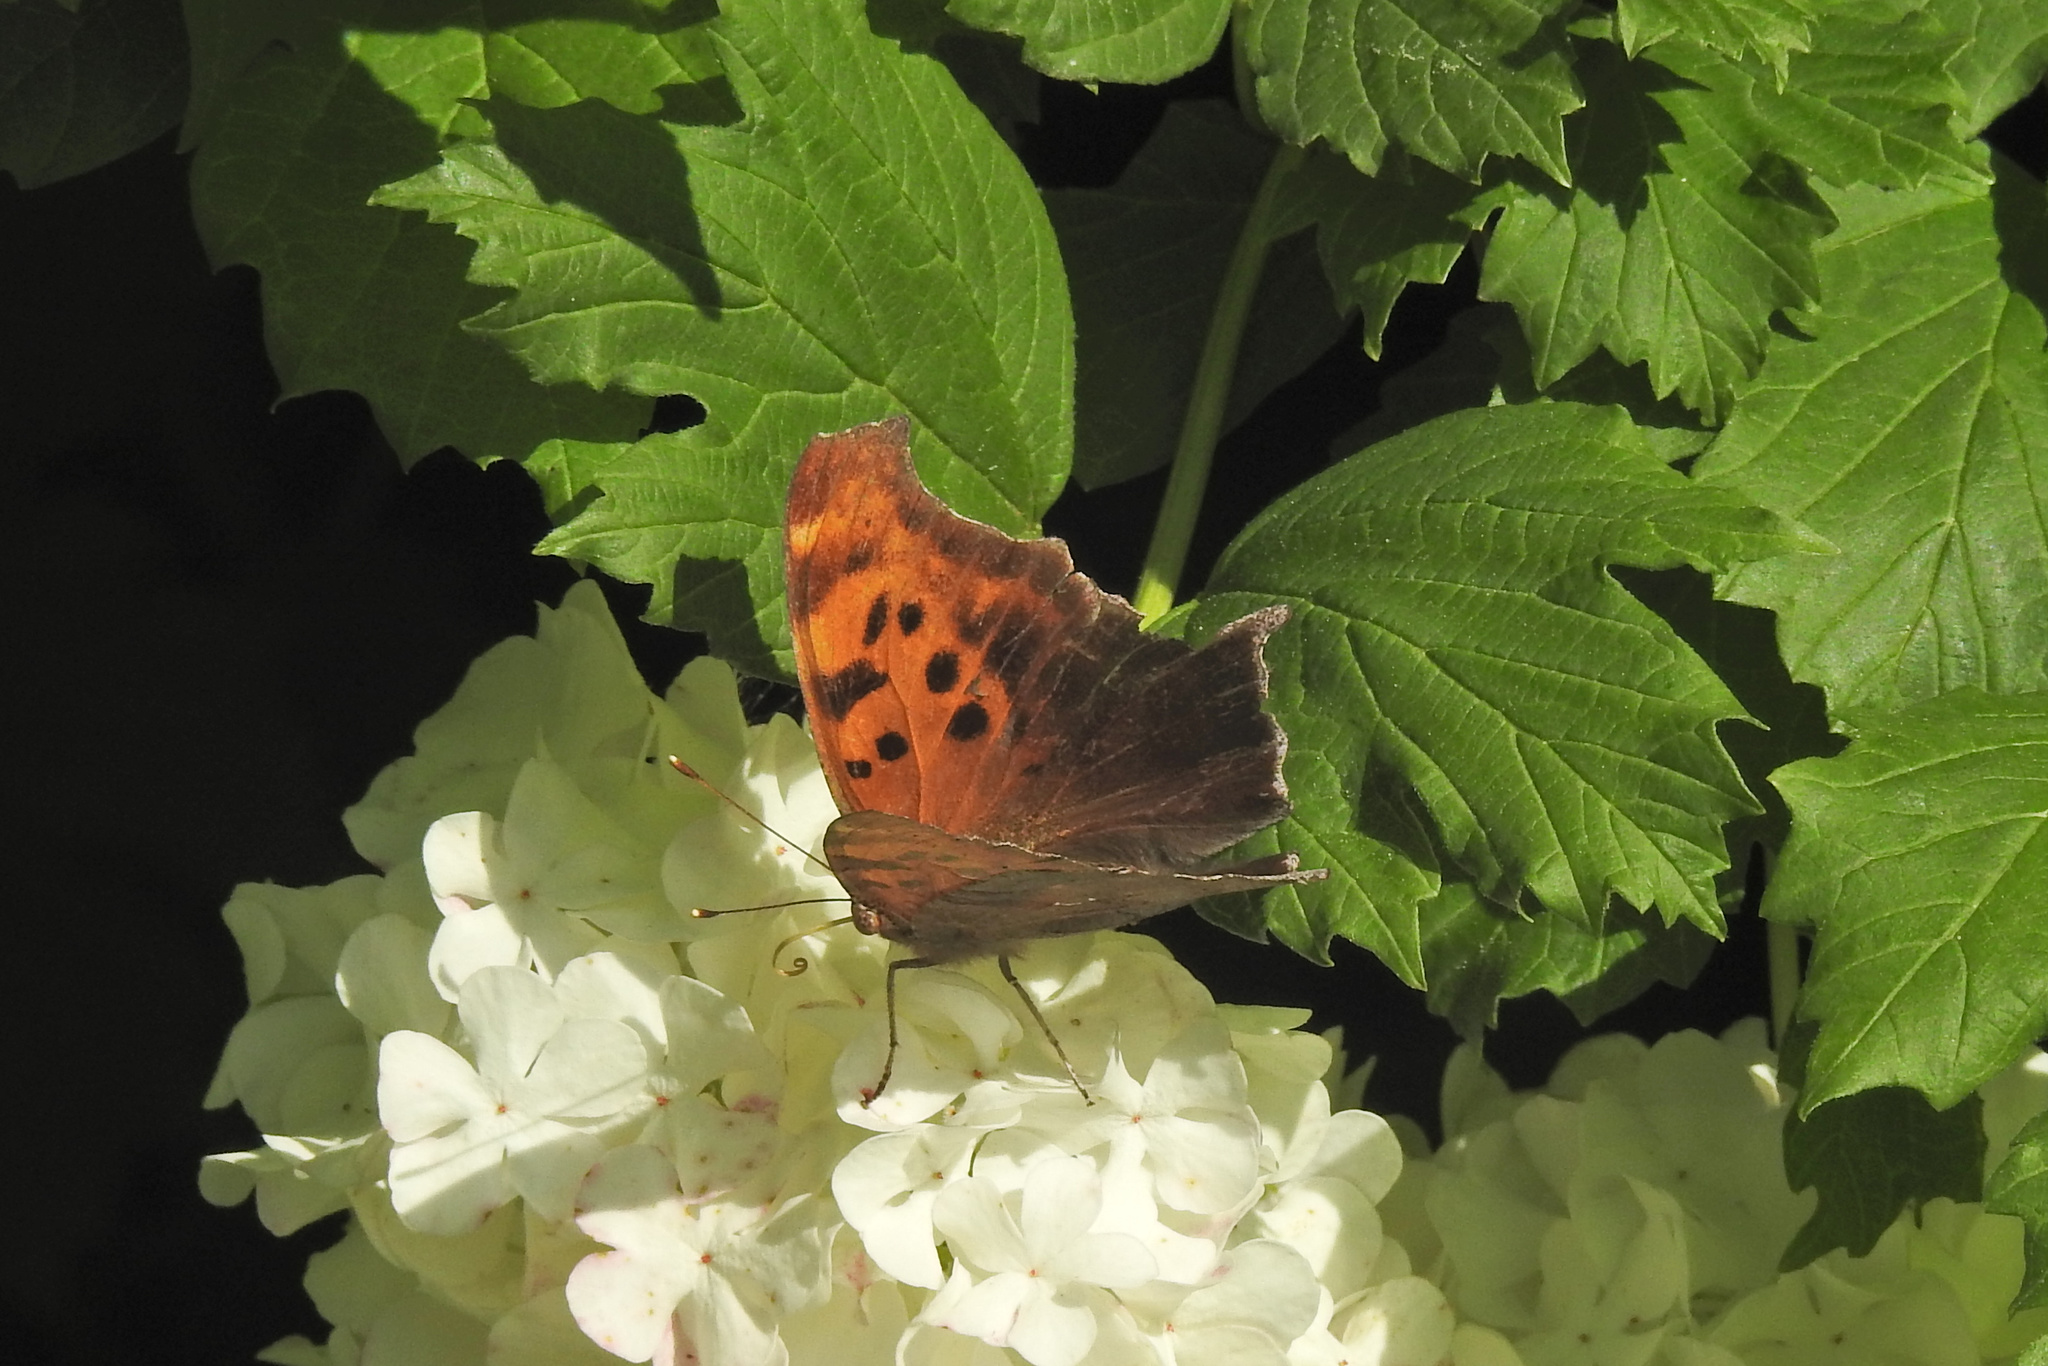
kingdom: Animalia
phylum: Arthropoda
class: Insecta
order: Lepidoptera
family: Nymphalidae
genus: Polygonia
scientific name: Polygonia interrogationis
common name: Question mark
